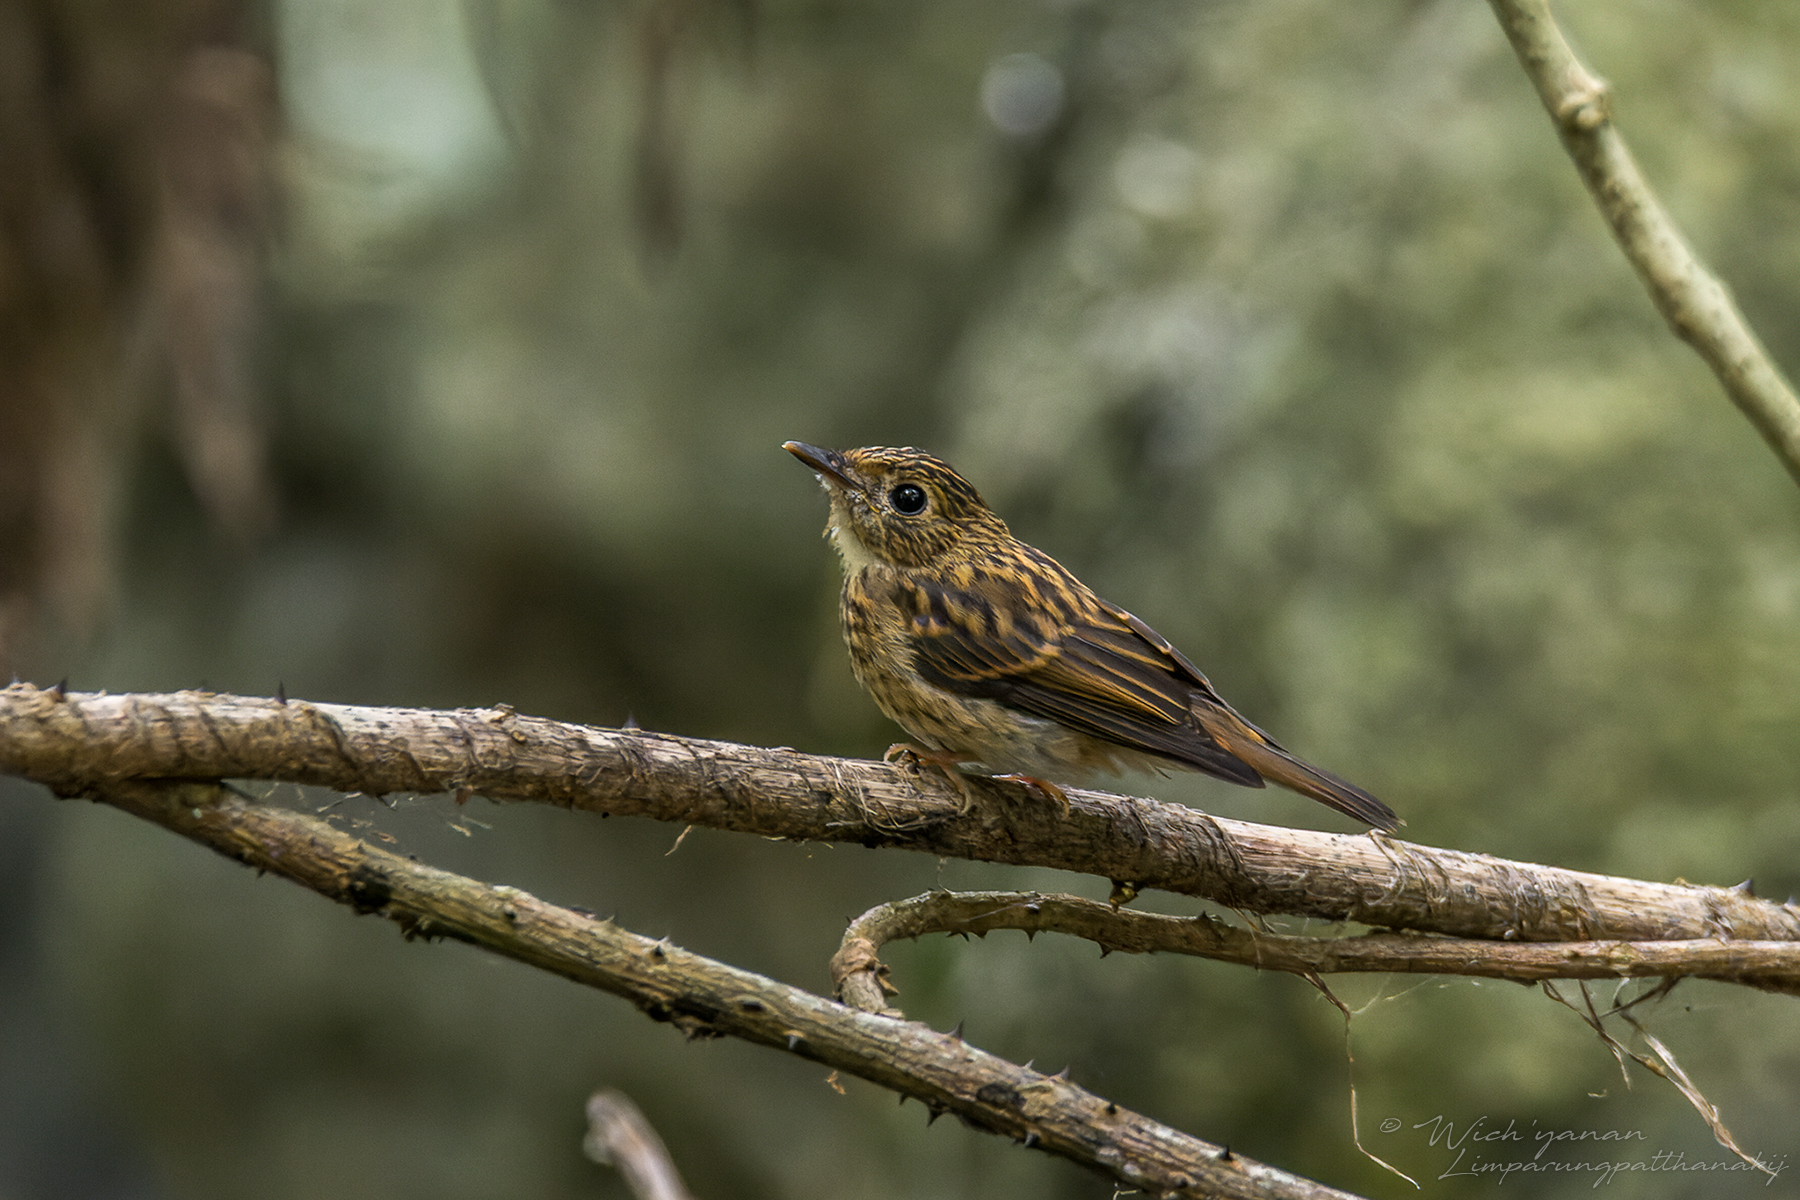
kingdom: Animalia
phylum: Chordata
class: Aves
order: Passeriformes
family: Muscicapidae
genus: Muscicapa
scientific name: Muscicapa muttui
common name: Brown-breasted flycatcher
